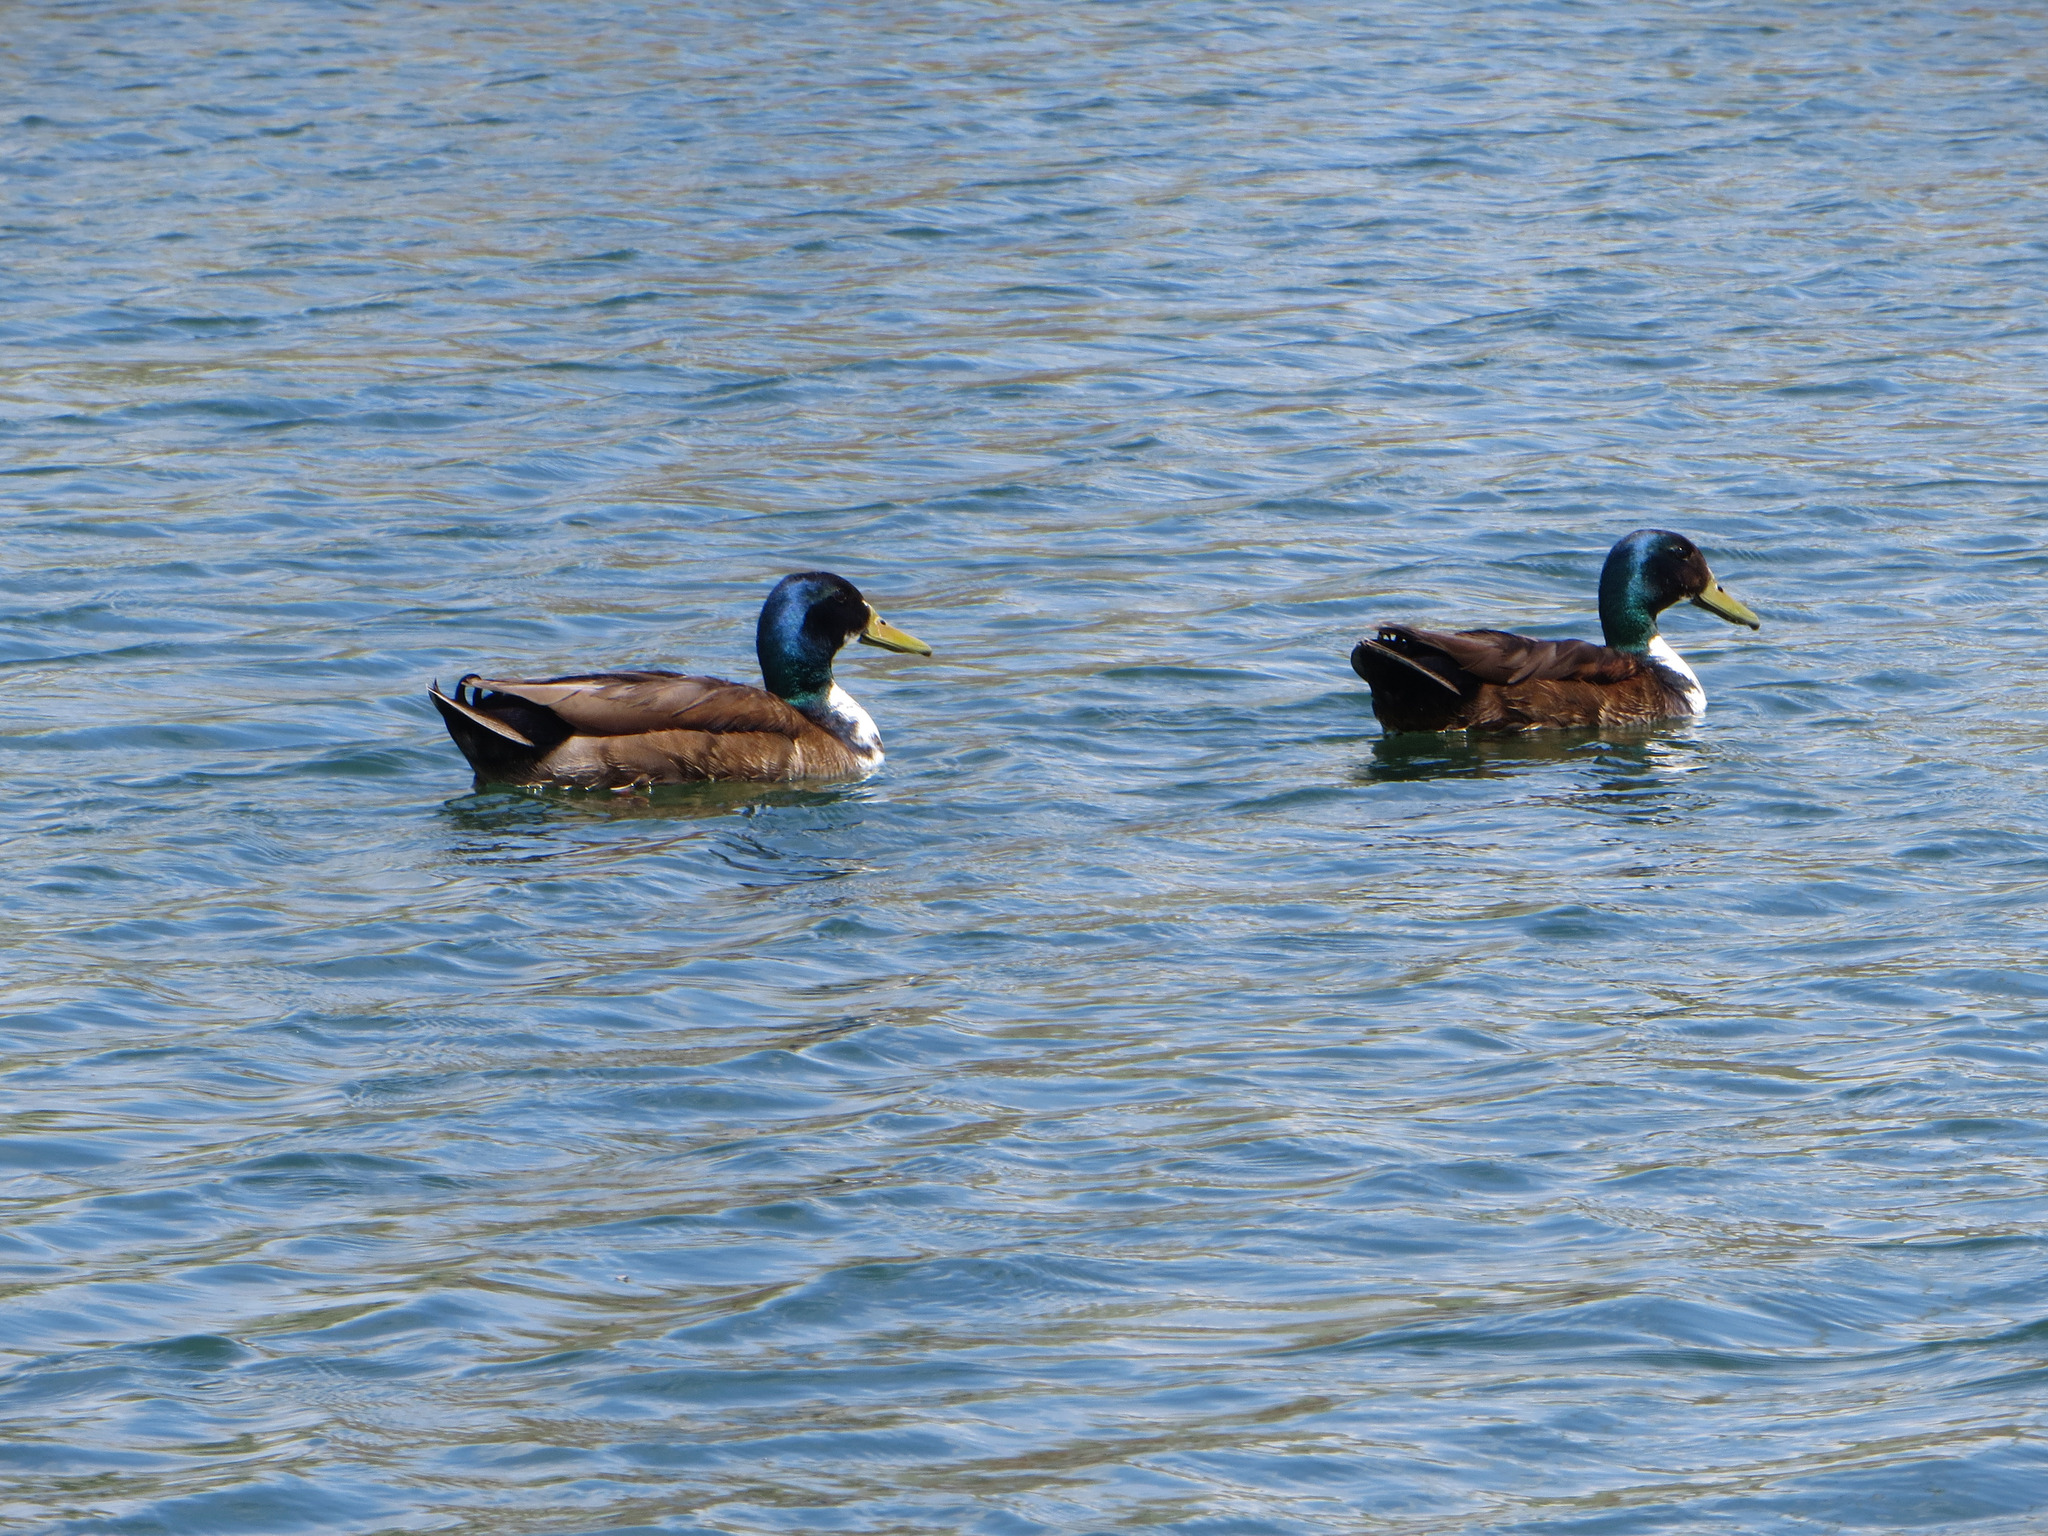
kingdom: Animalia
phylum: Chordata
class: Aves
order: Anseriformes
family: Anatidae
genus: Anas
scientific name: Anas platyrhynchos
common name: Mallard
